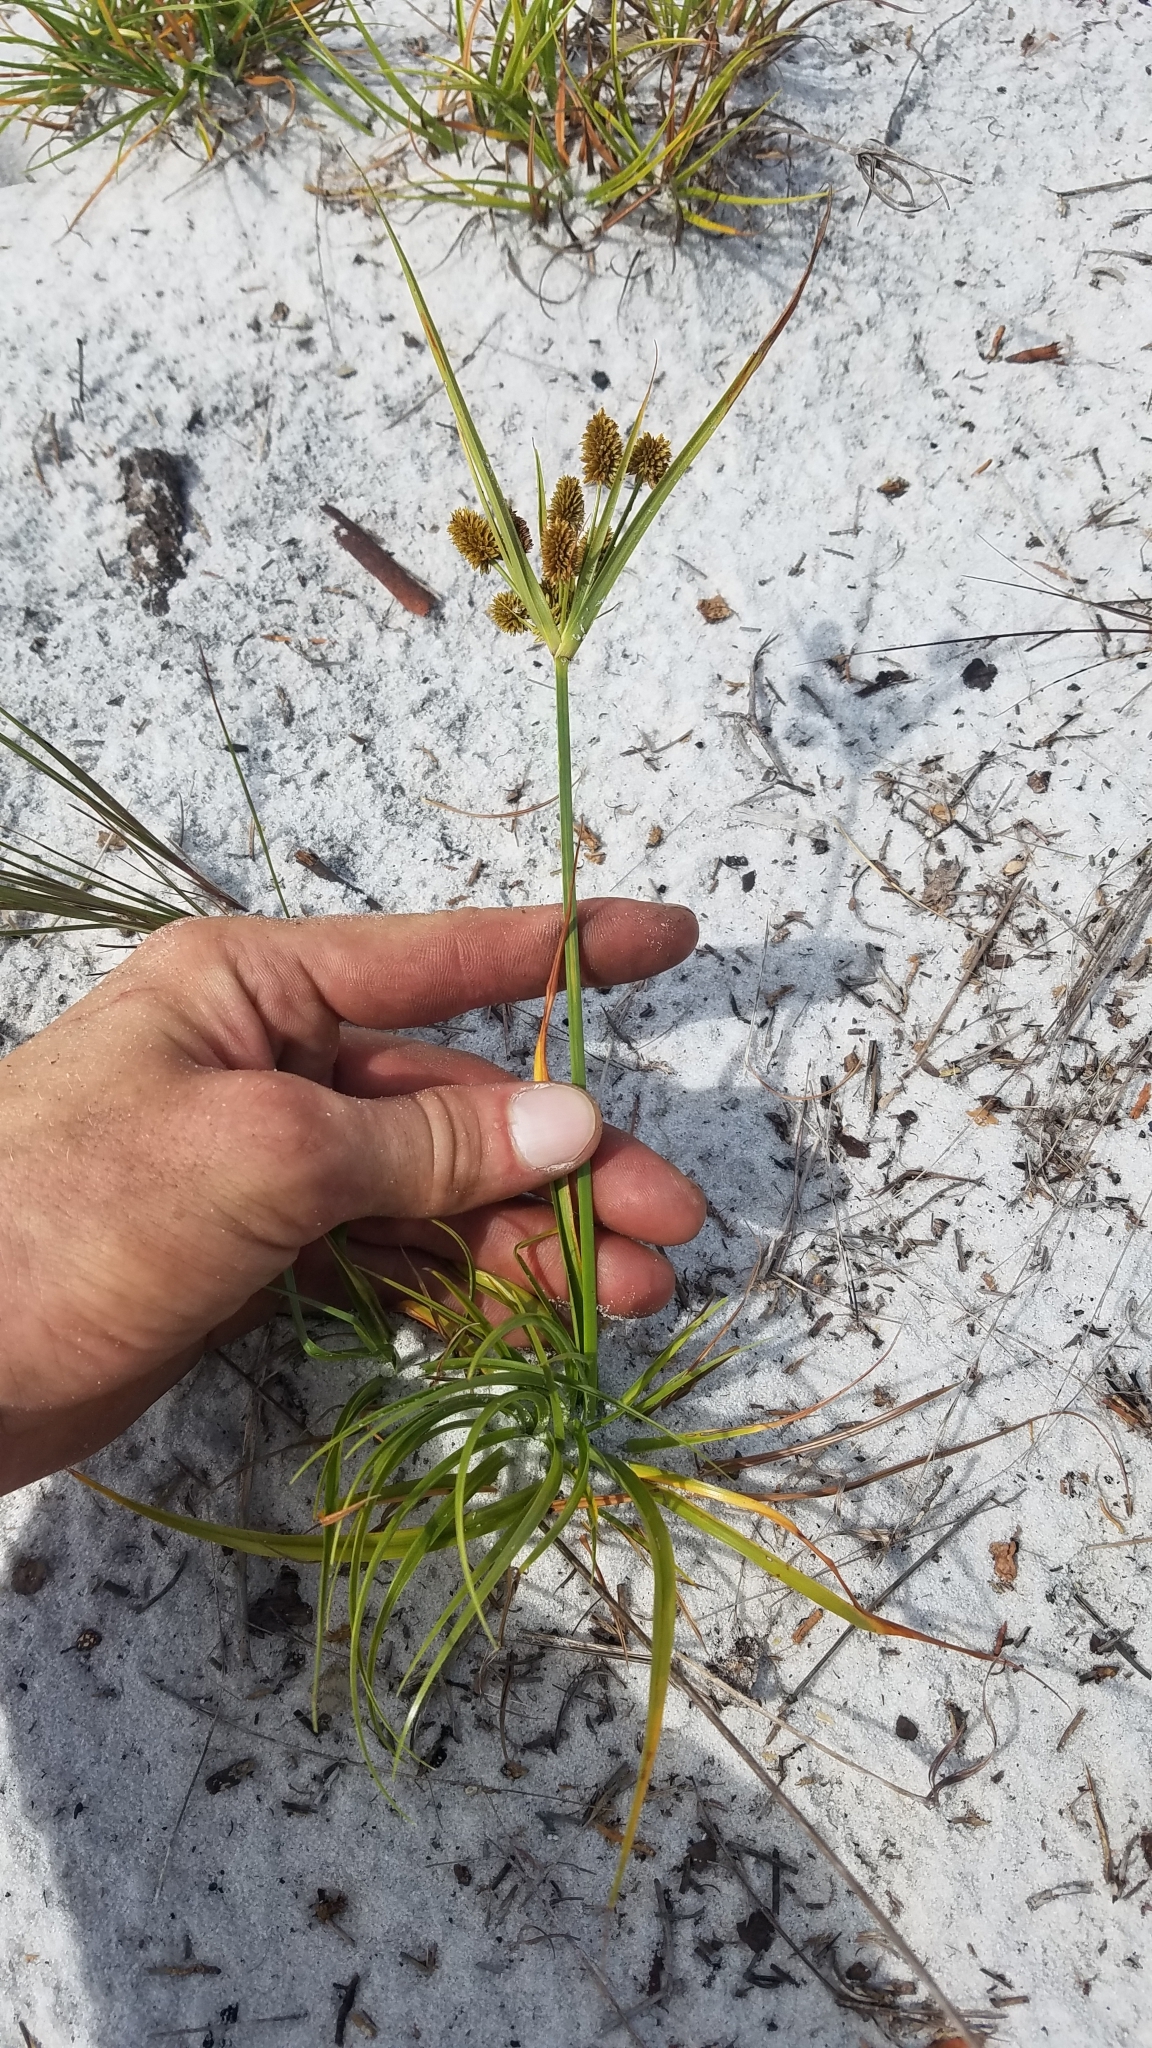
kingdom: Plantae
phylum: Tracheophyta
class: Liliopsida
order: Poales
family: Cyperaceae
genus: Cyperus
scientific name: Cyperus retrorsus
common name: Pinebarren flat sedge
